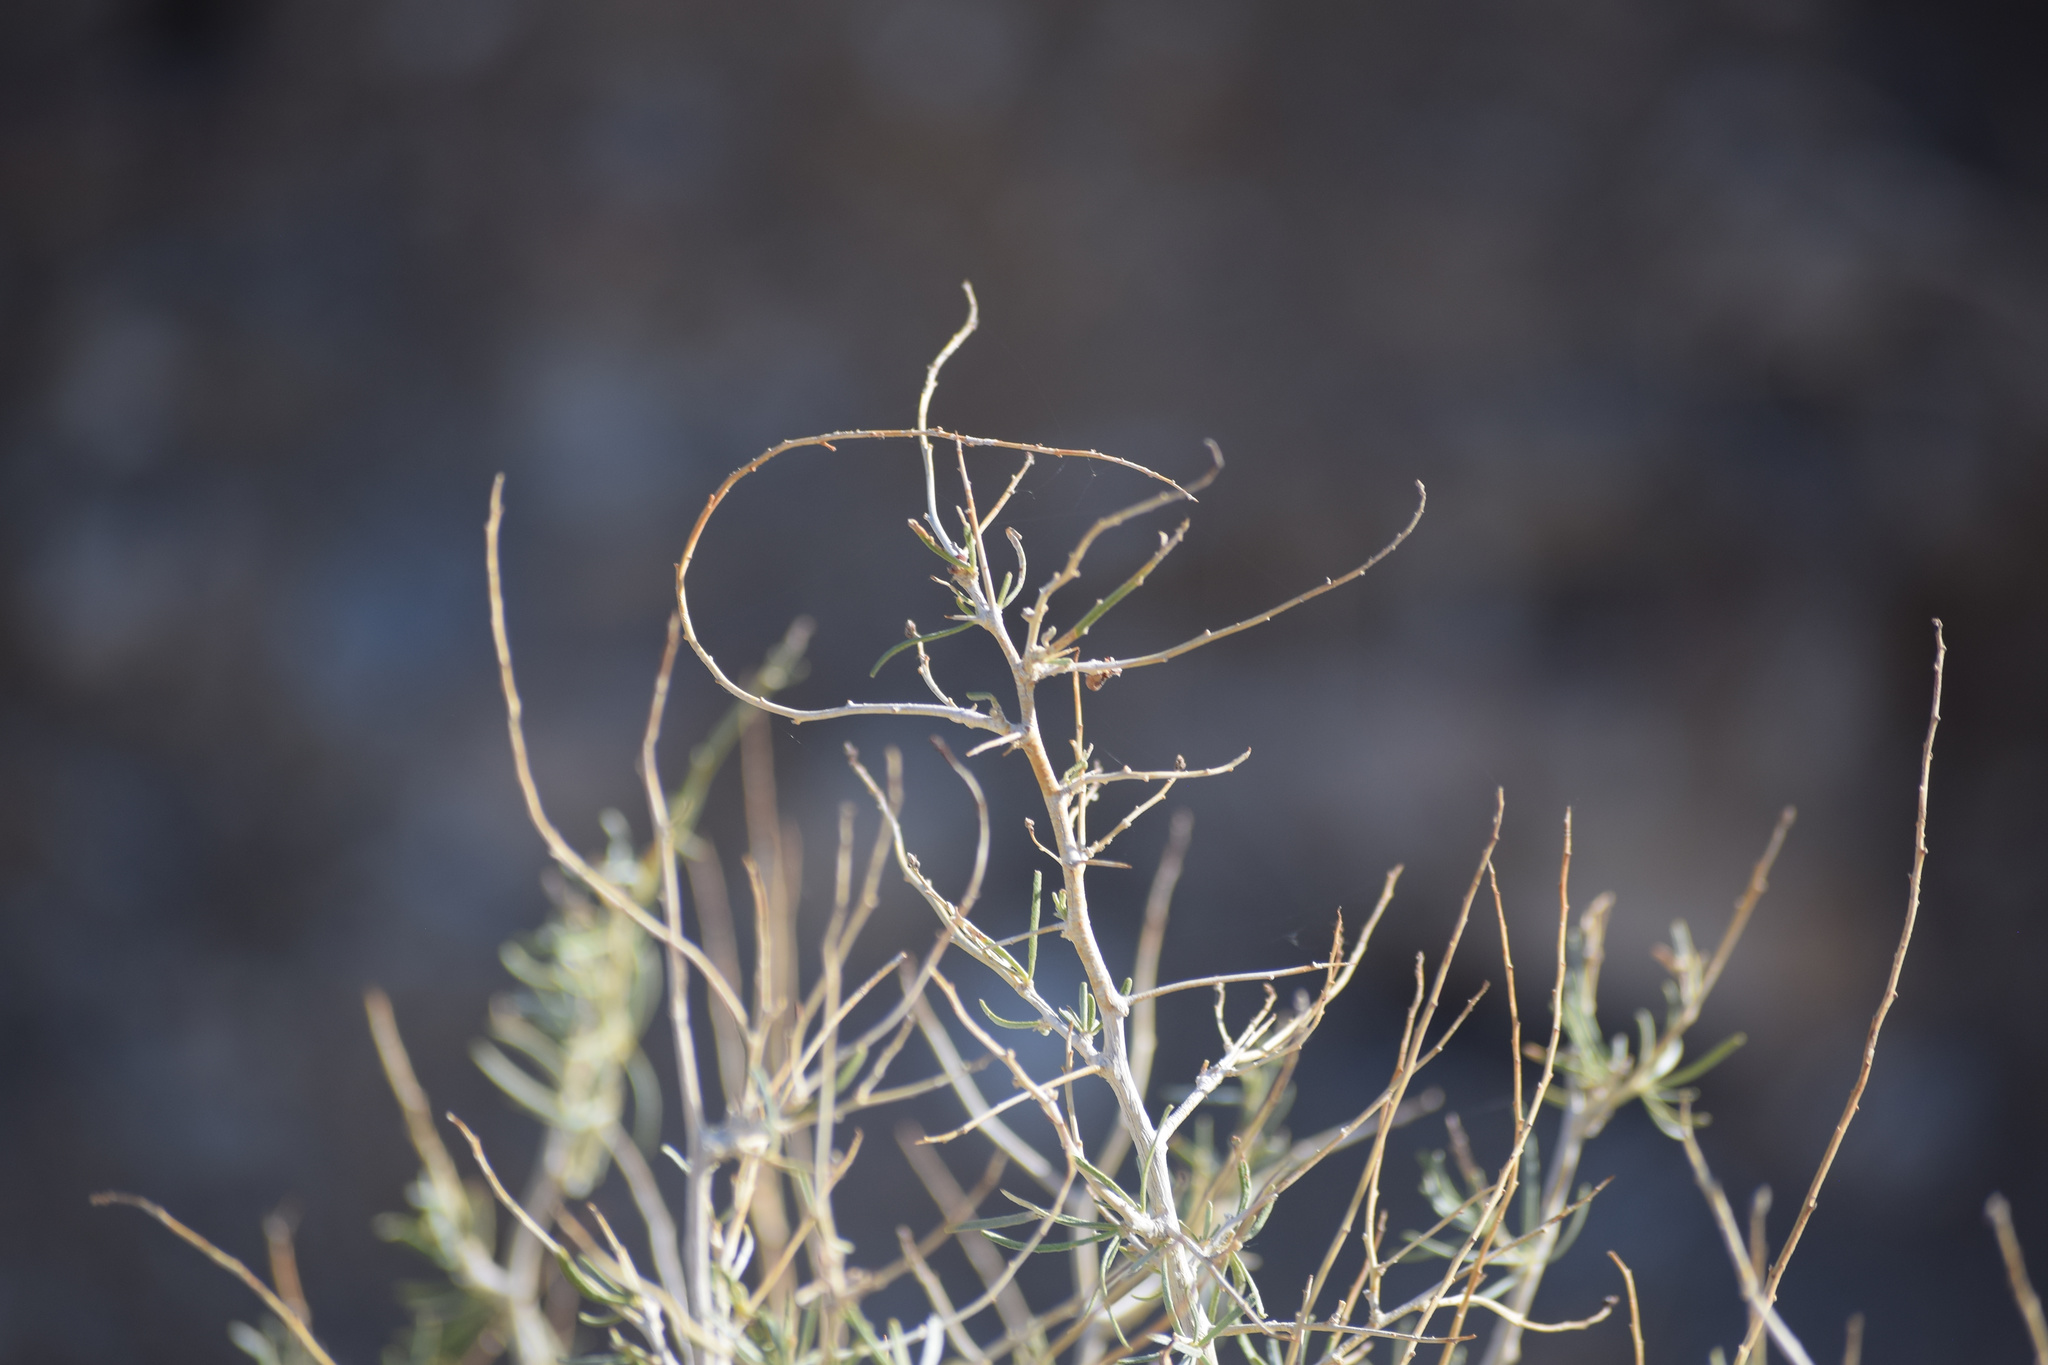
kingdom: Plantae
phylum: Tracheophyta
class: Magnoliopsida
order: Fabales
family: Fabaceae
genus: Psorothamnus
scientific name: Psorothamnus schottii
